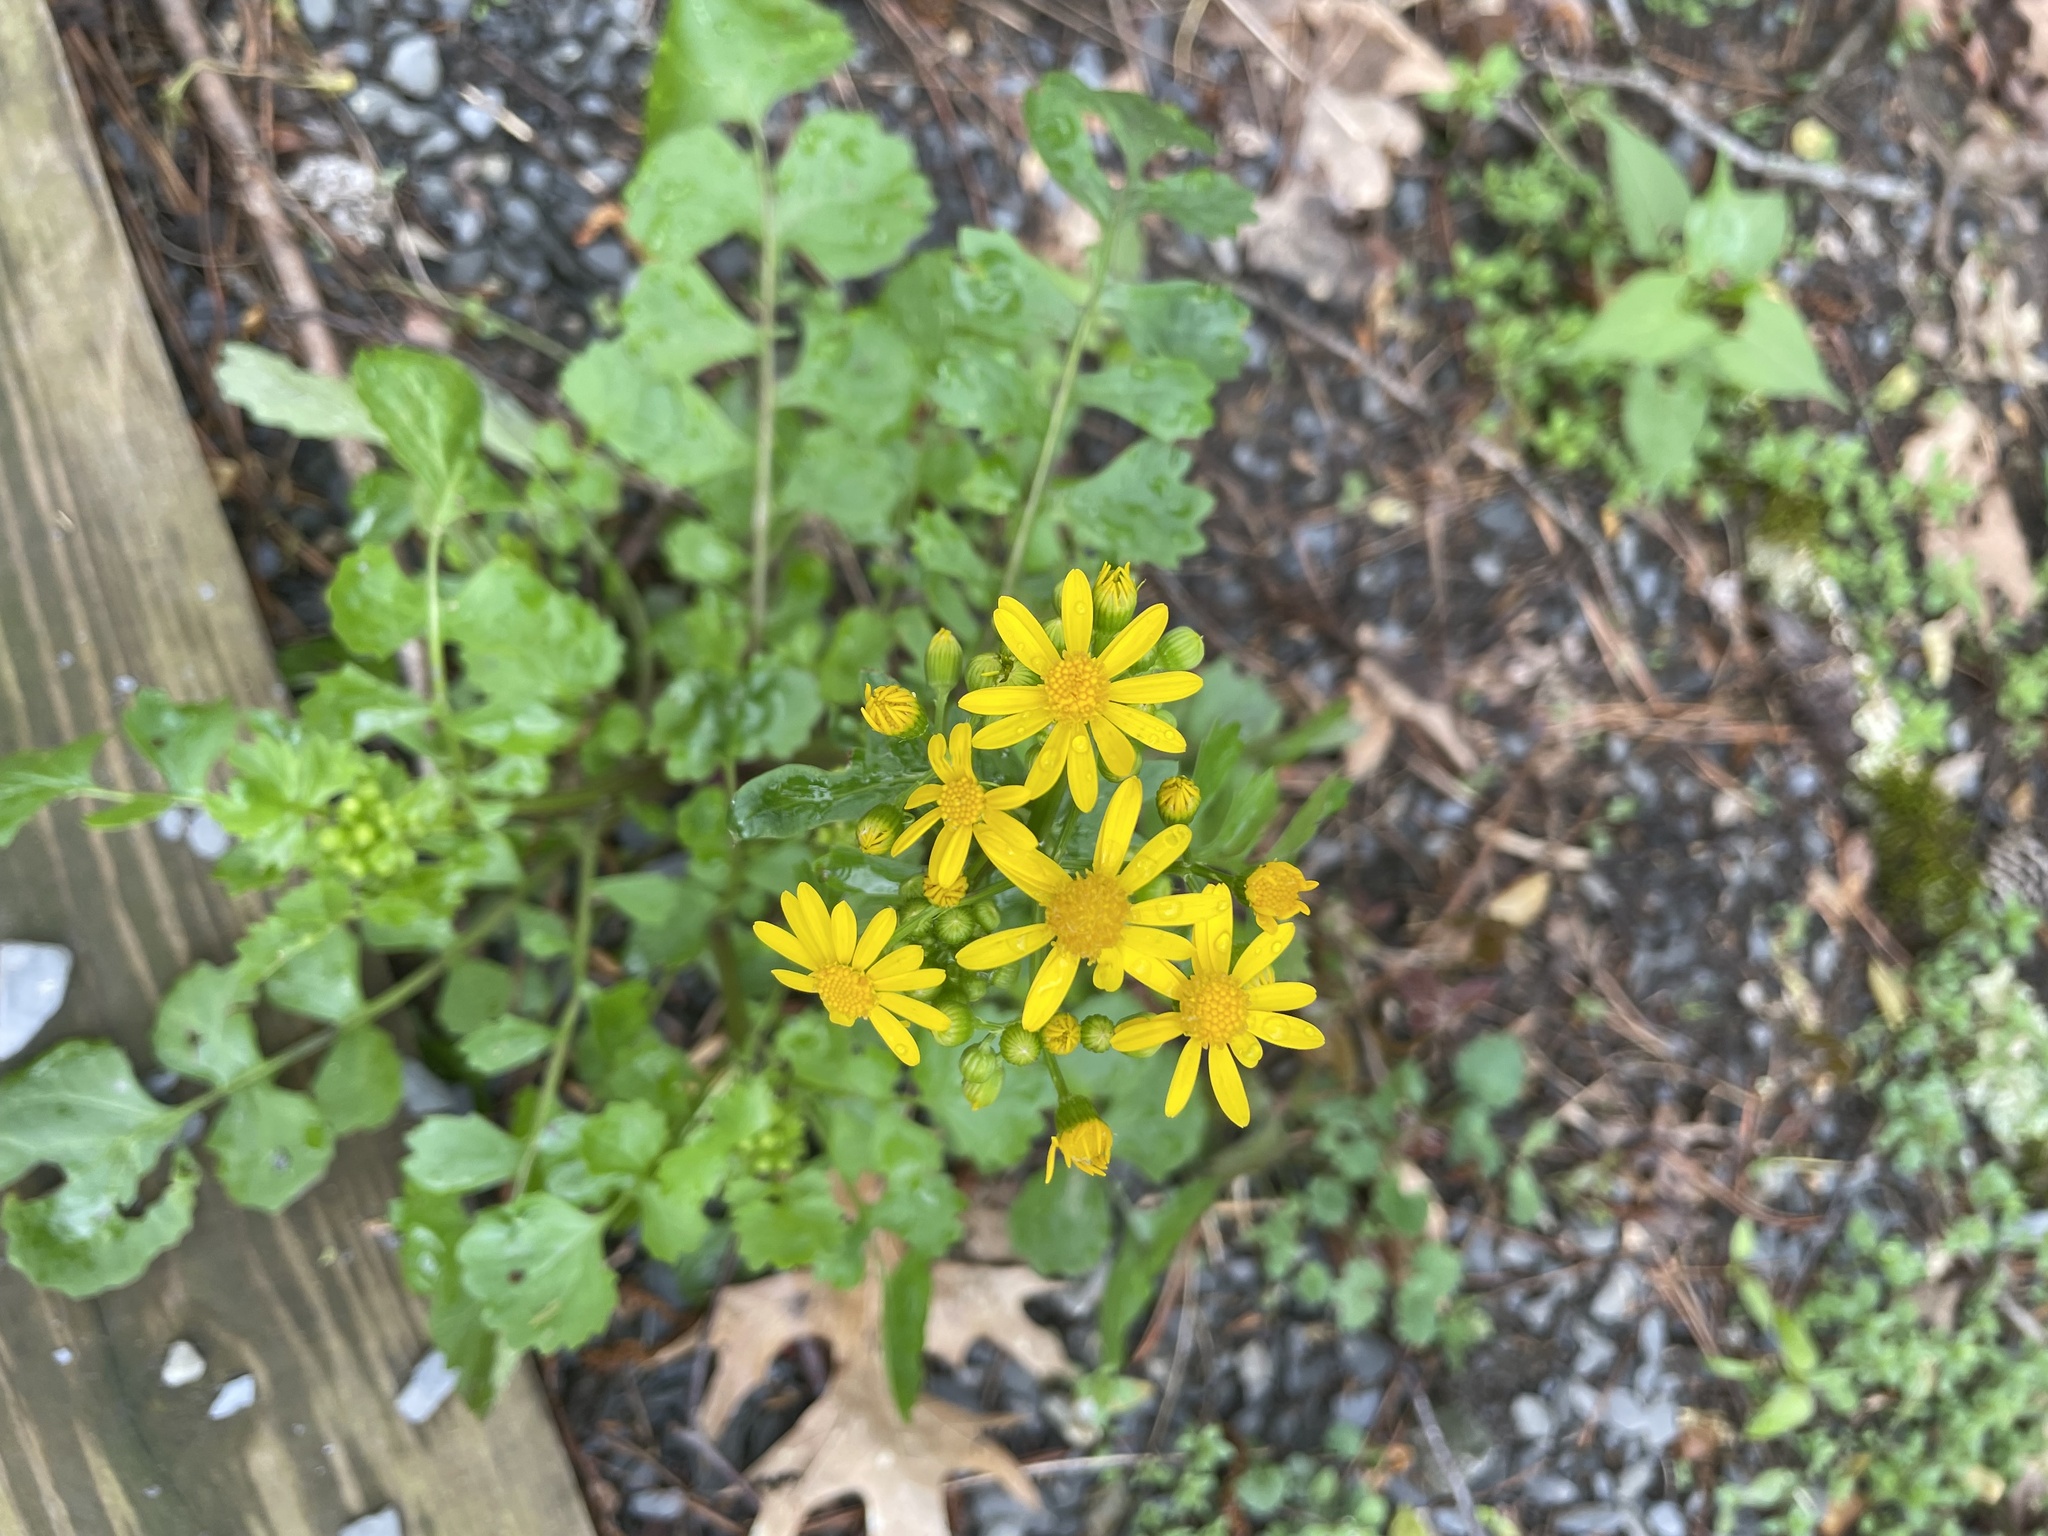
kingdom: Plantae
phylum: Tracheophyta
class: Magnoliopsida
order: Asterales
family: Asteraceae
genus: Packera
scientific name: Packera glabella
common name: Butterweed
